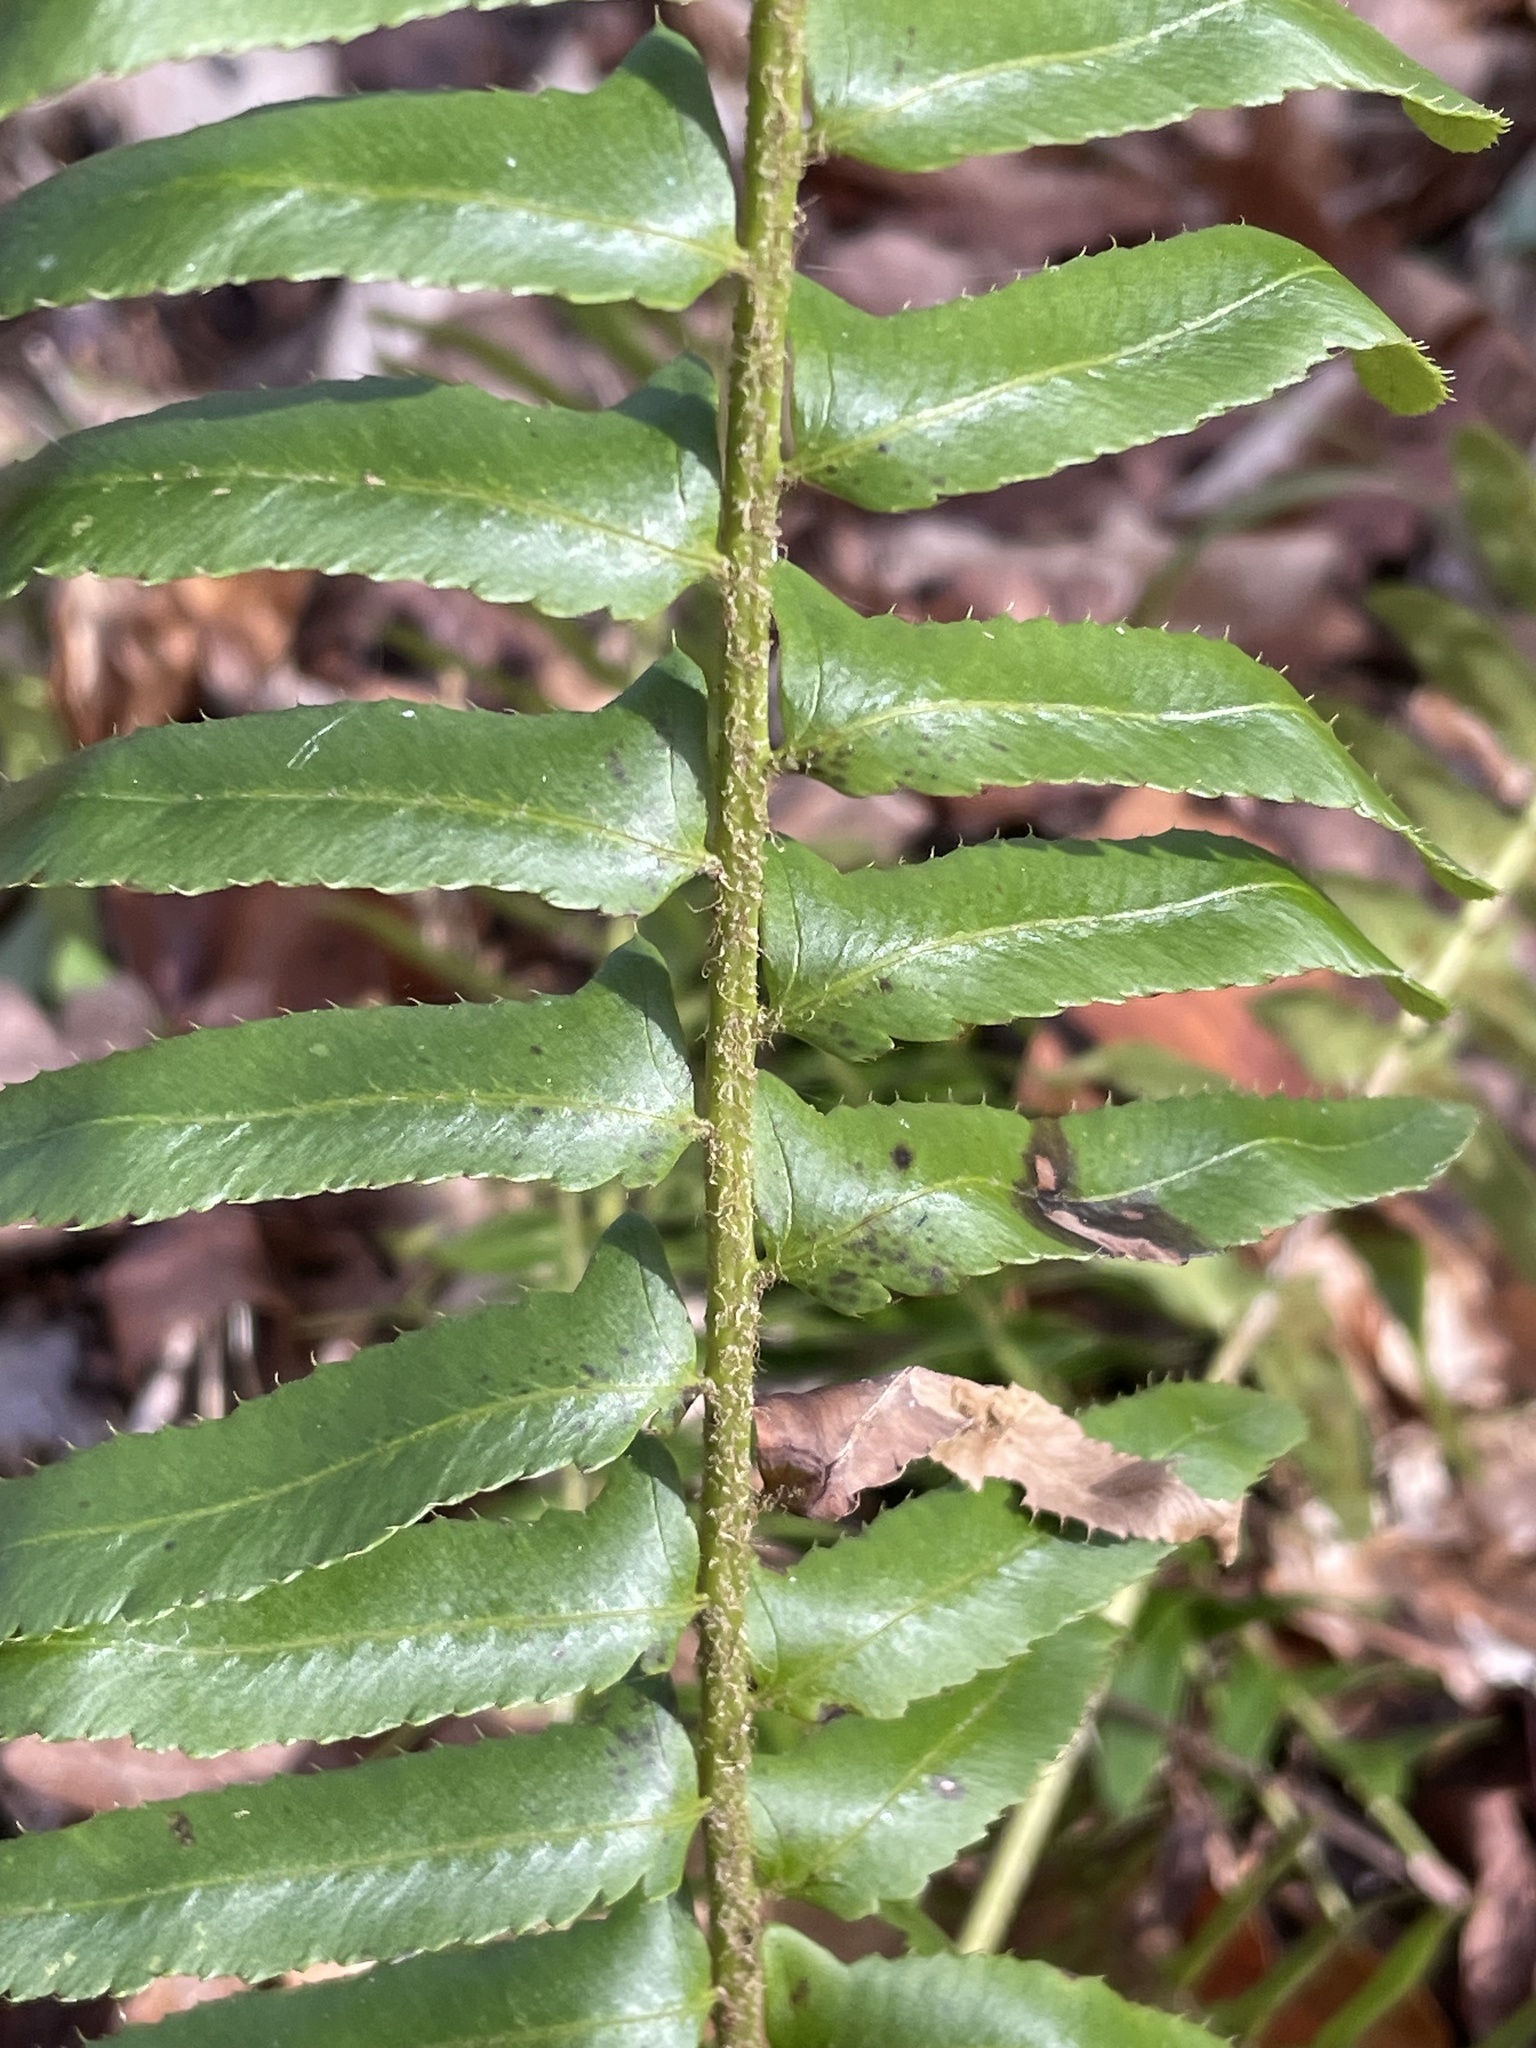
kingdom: Plantae
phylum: Tracheophyta
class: Polypodiopsida
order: Polypodiales
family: Dryopteridaceae
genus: Polystichum
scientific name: Polystichum acrostichoides
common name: Christmas fern
